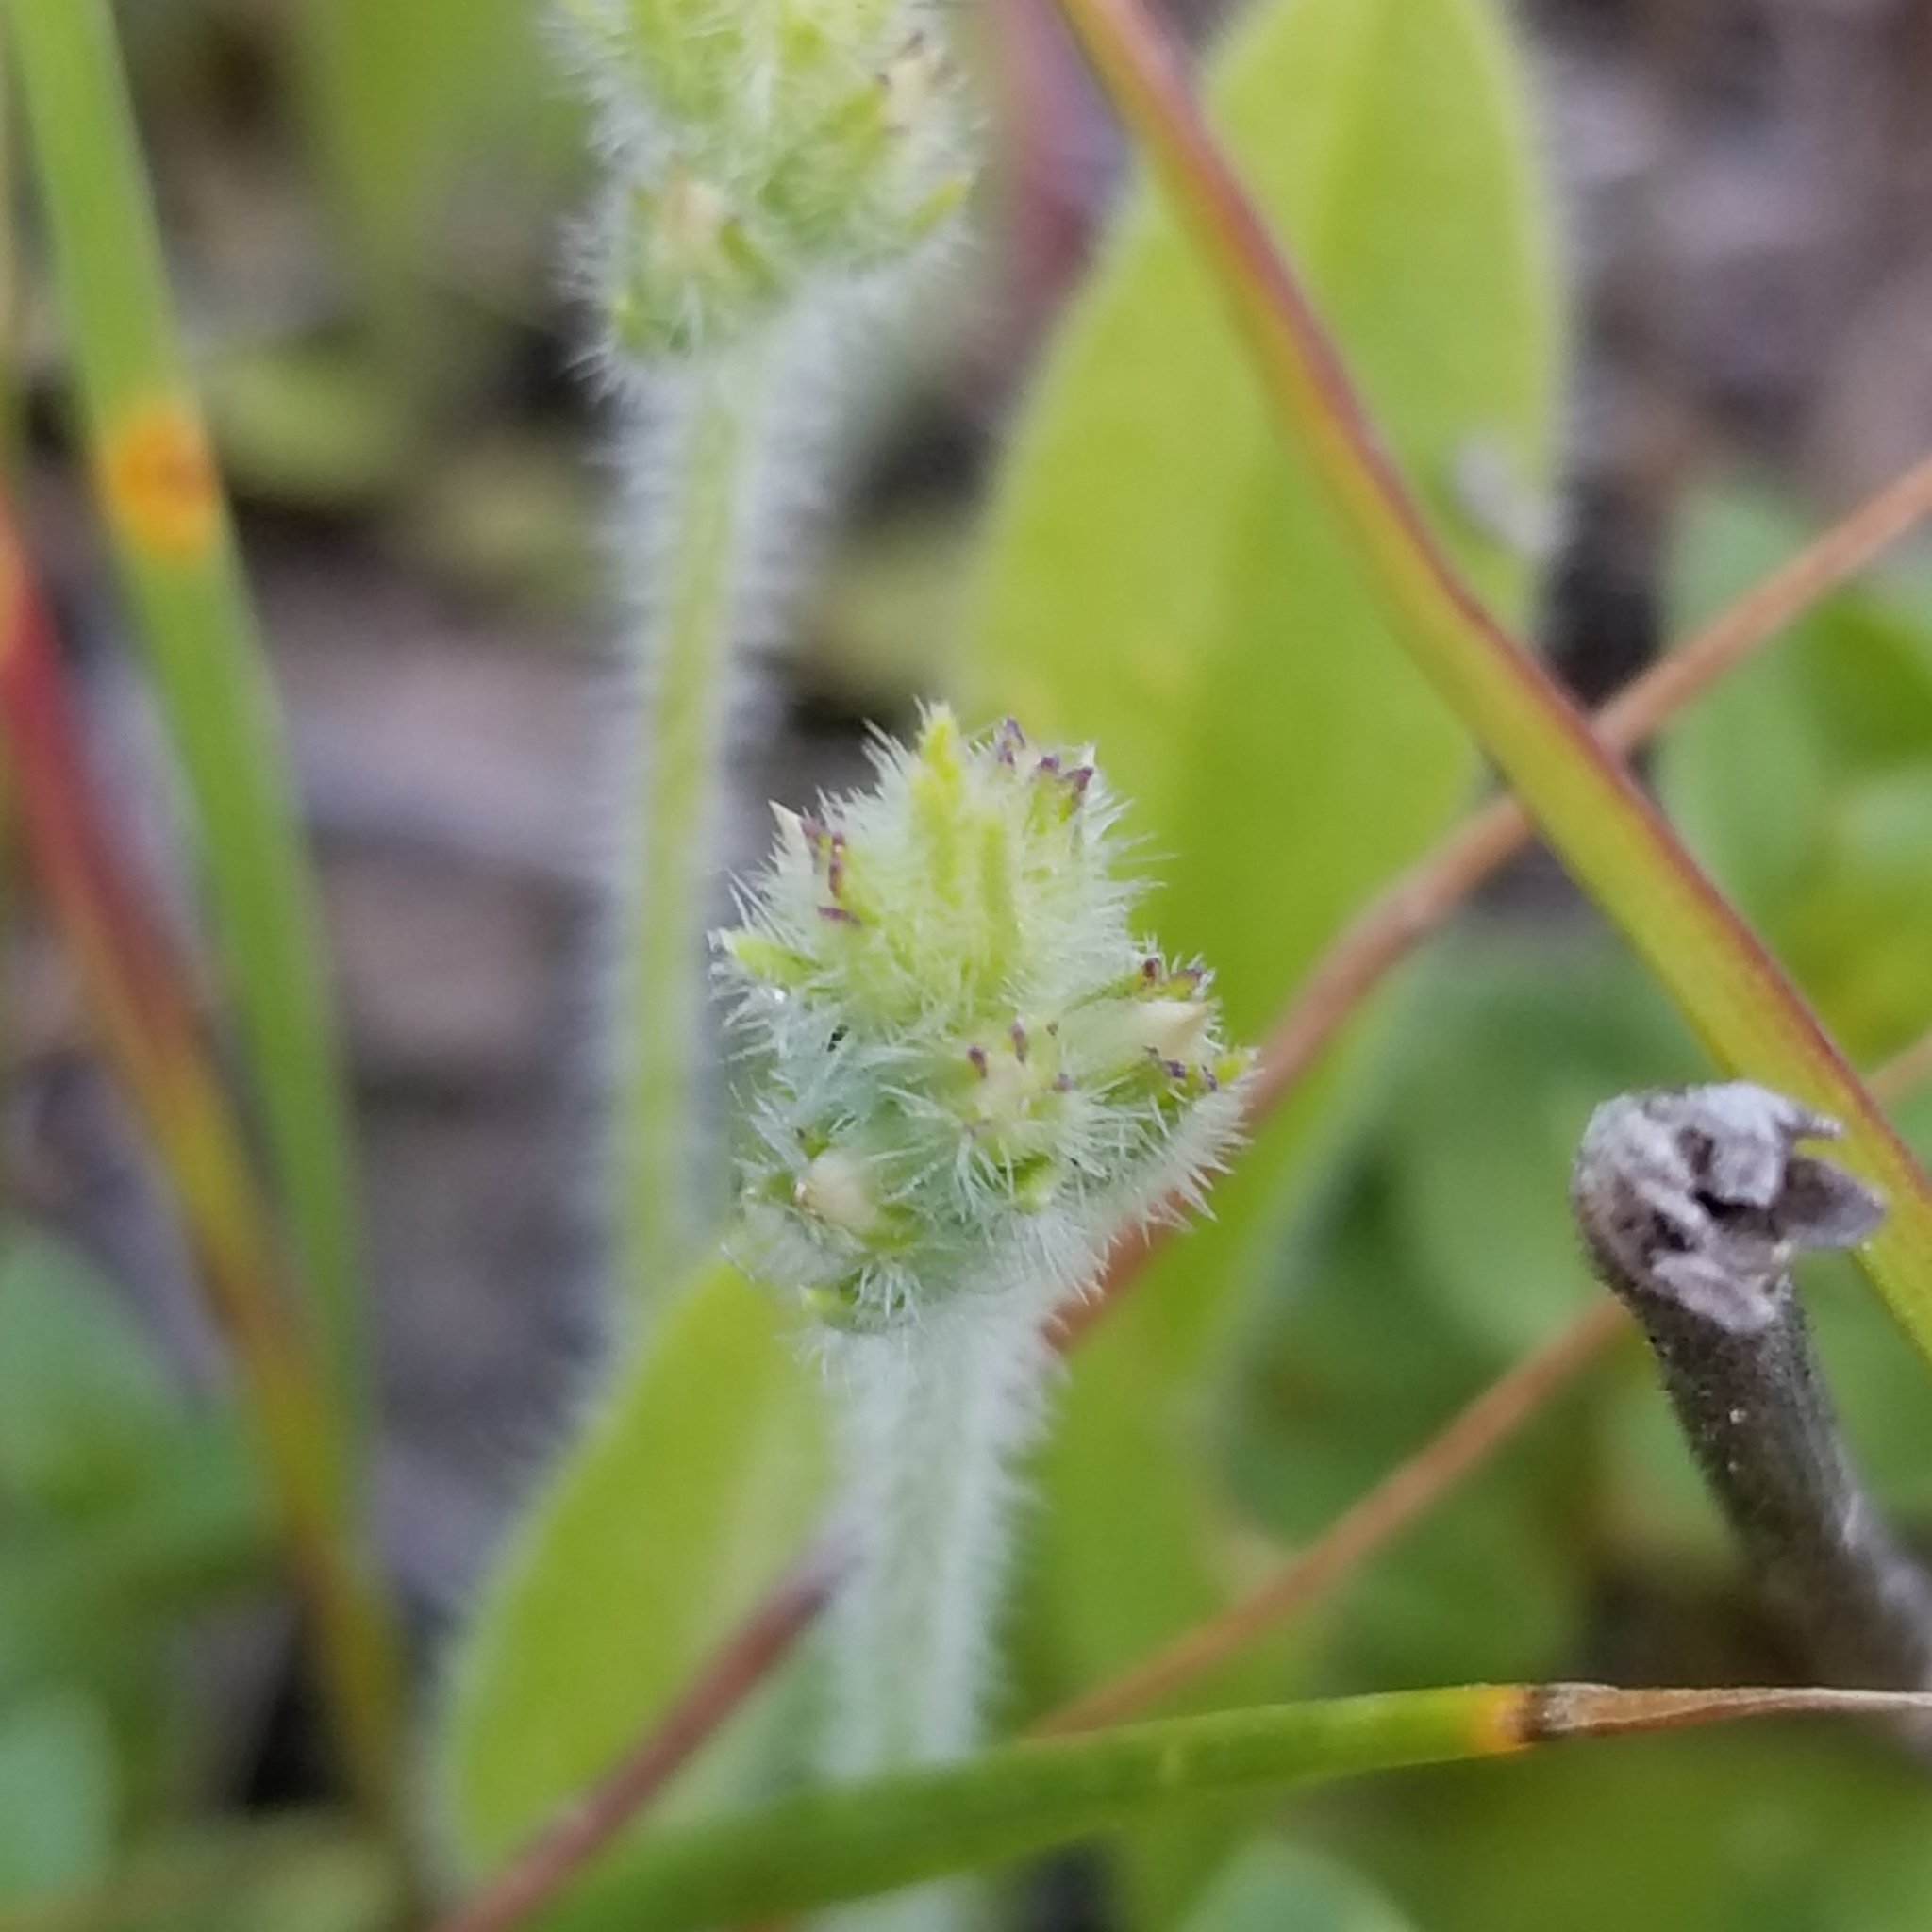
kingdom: Plantae
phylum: Tracheophyta
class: Magnoliopsida
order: Lamiales
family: Plantaginaceae
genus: Plantago
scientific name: Plantago rhodosperma
